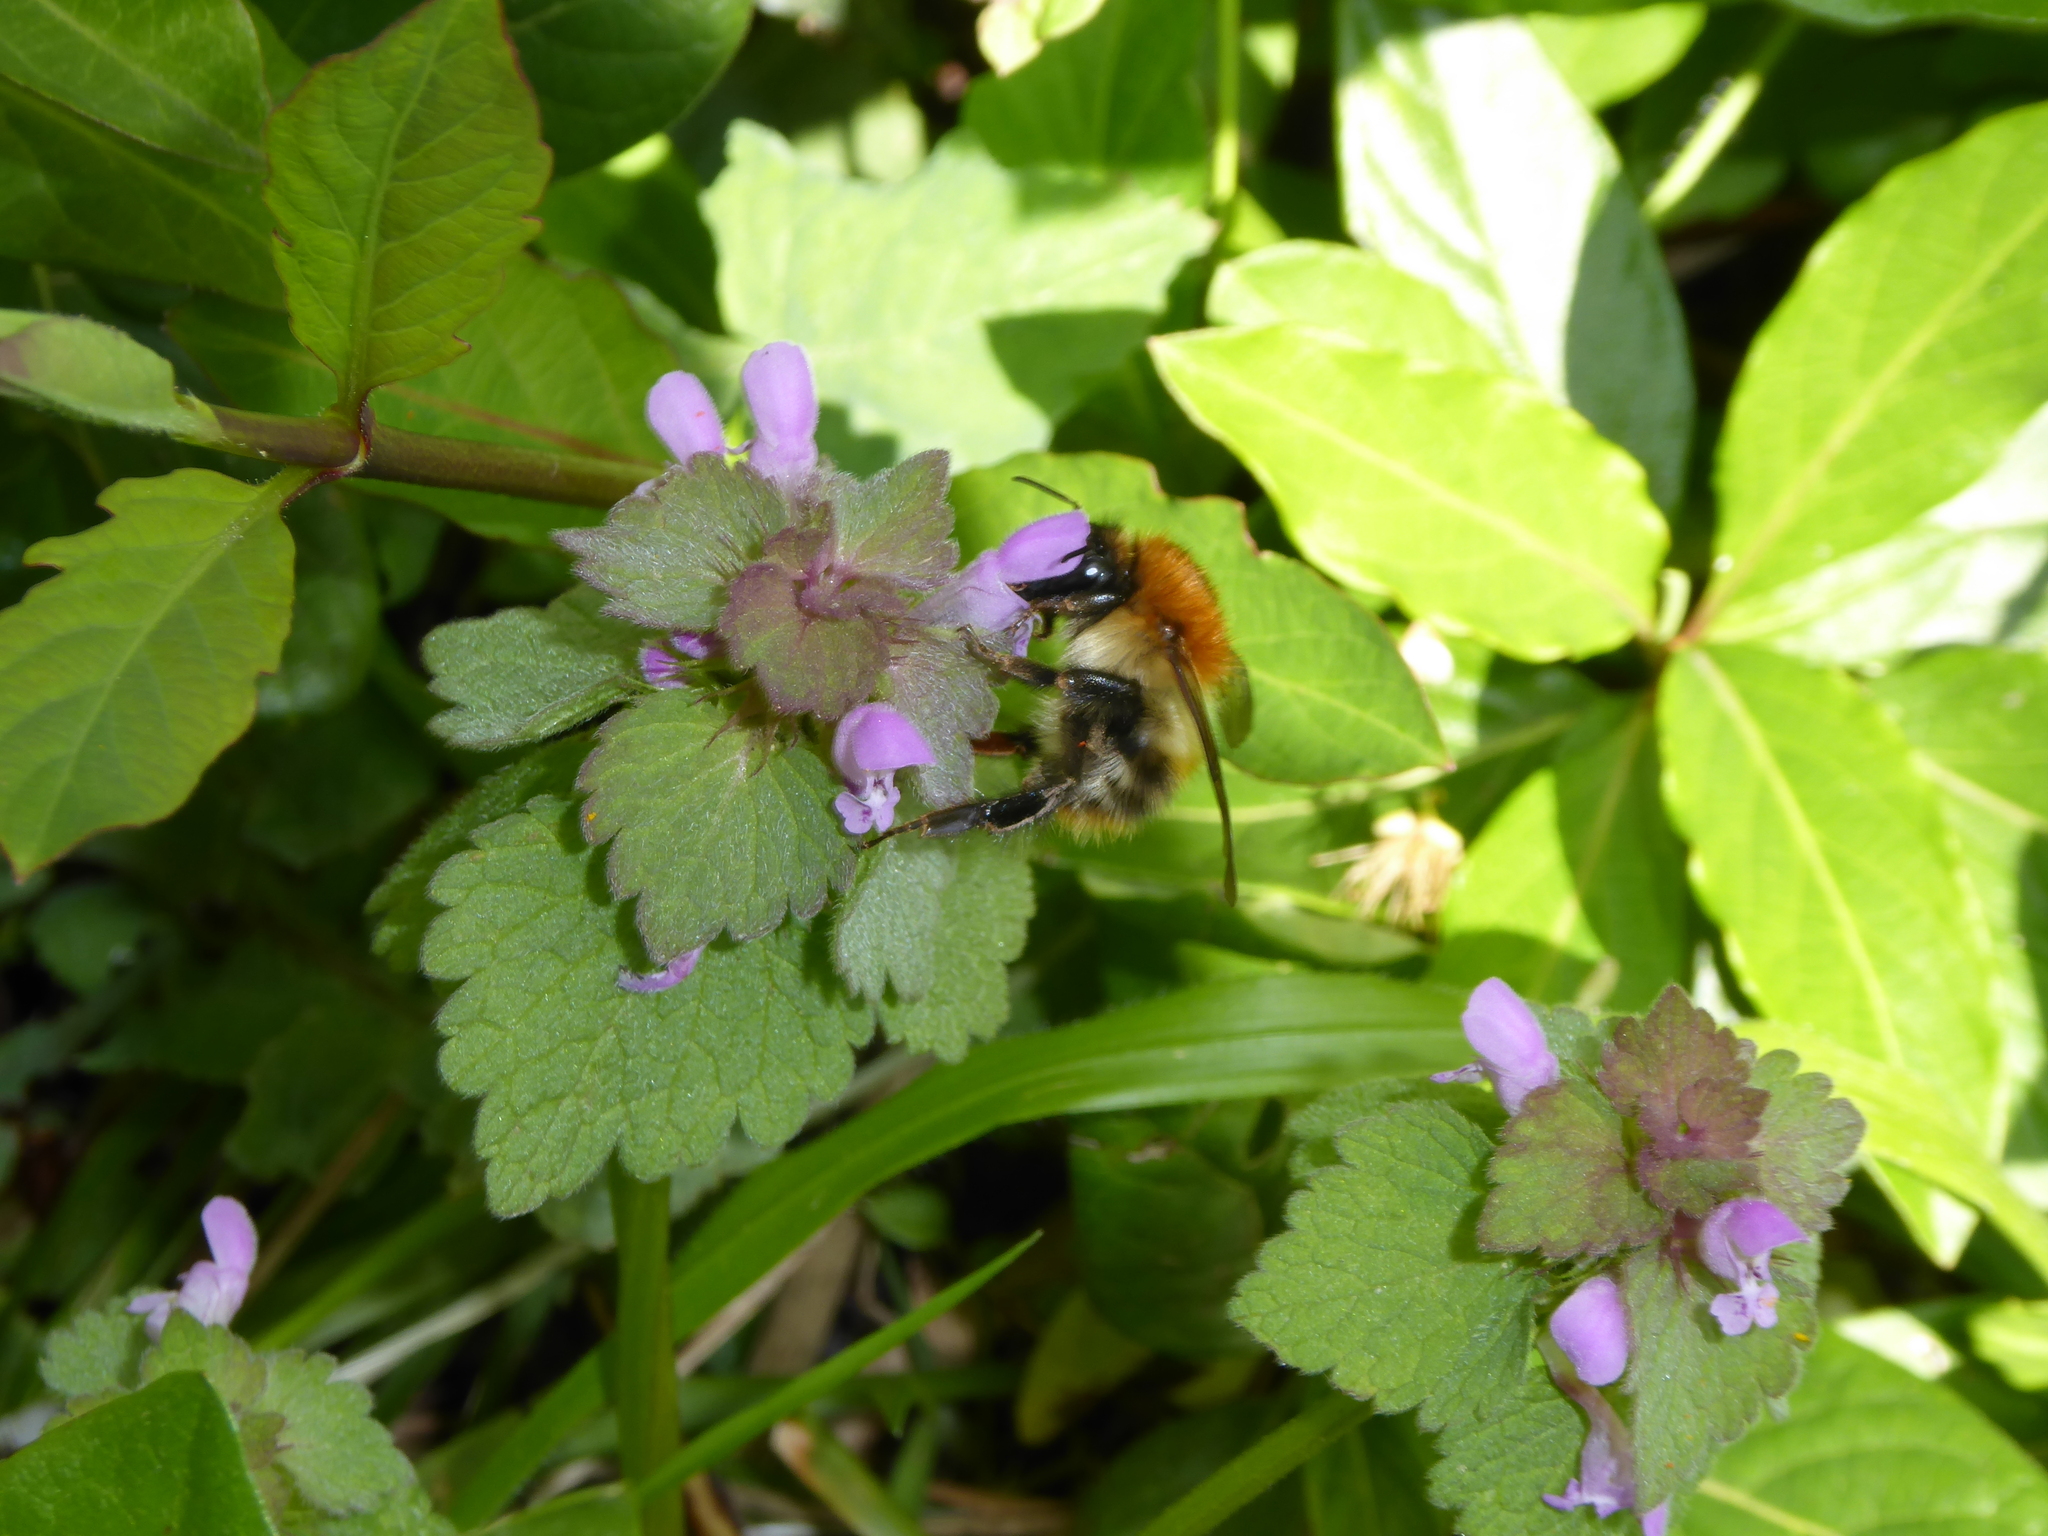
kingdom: Animalia
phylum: Arthropoda
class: Insecta
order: Hymenoptera
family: Apidae
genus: Bombus
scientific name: Bombus pascuorum
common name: Common carder bee
